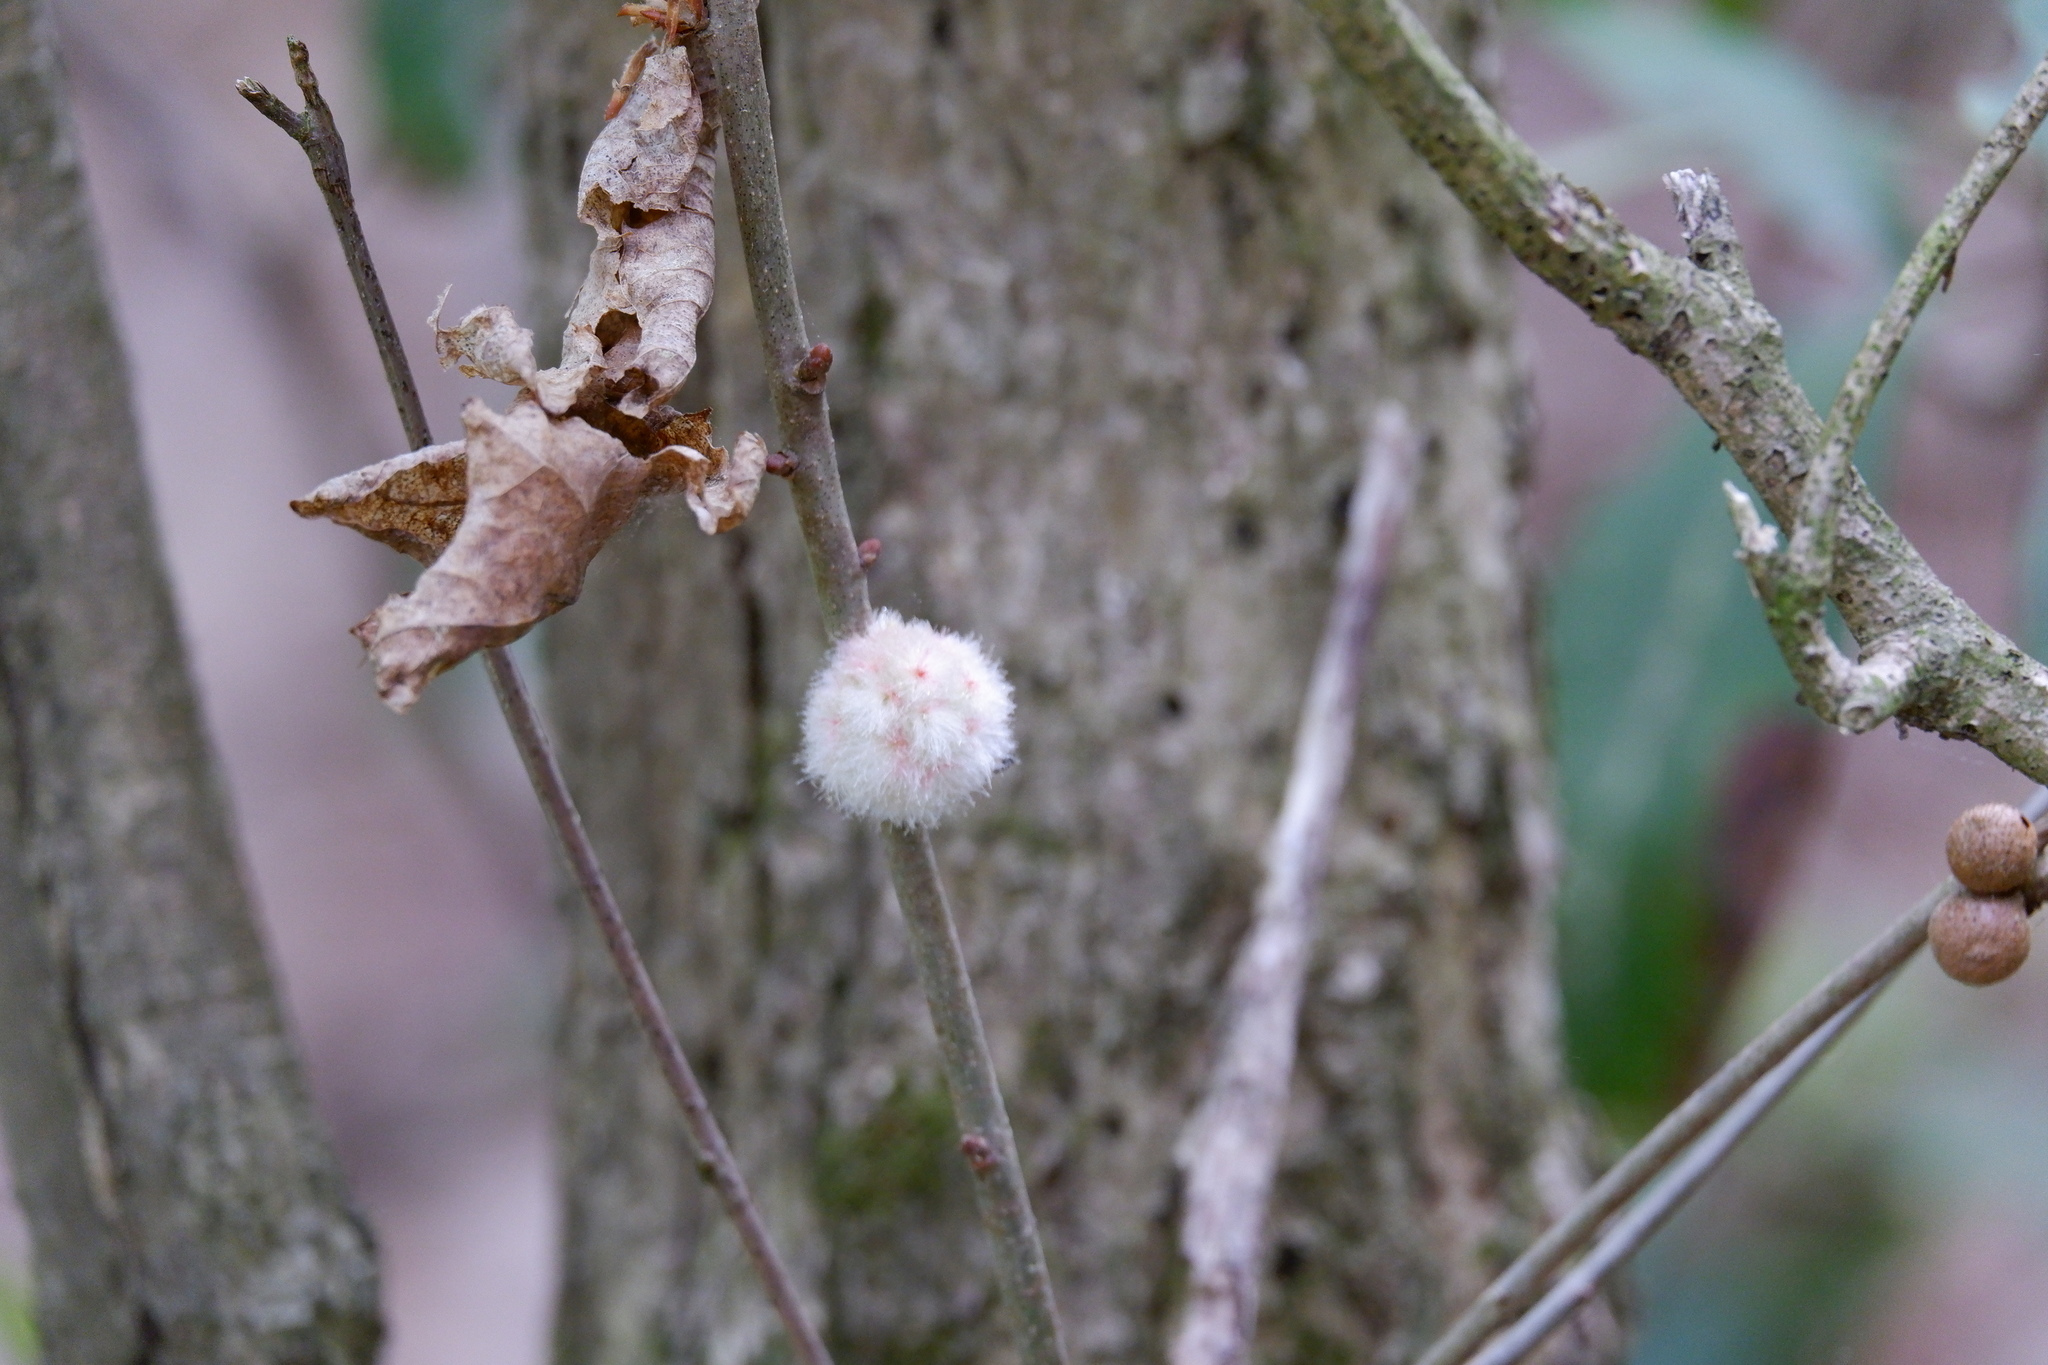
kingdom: Animalia
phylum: Arthropoda
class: Insecta
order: Hymenoptera
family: Cynipidae
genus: Callirhytis
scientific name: Callirhytis
